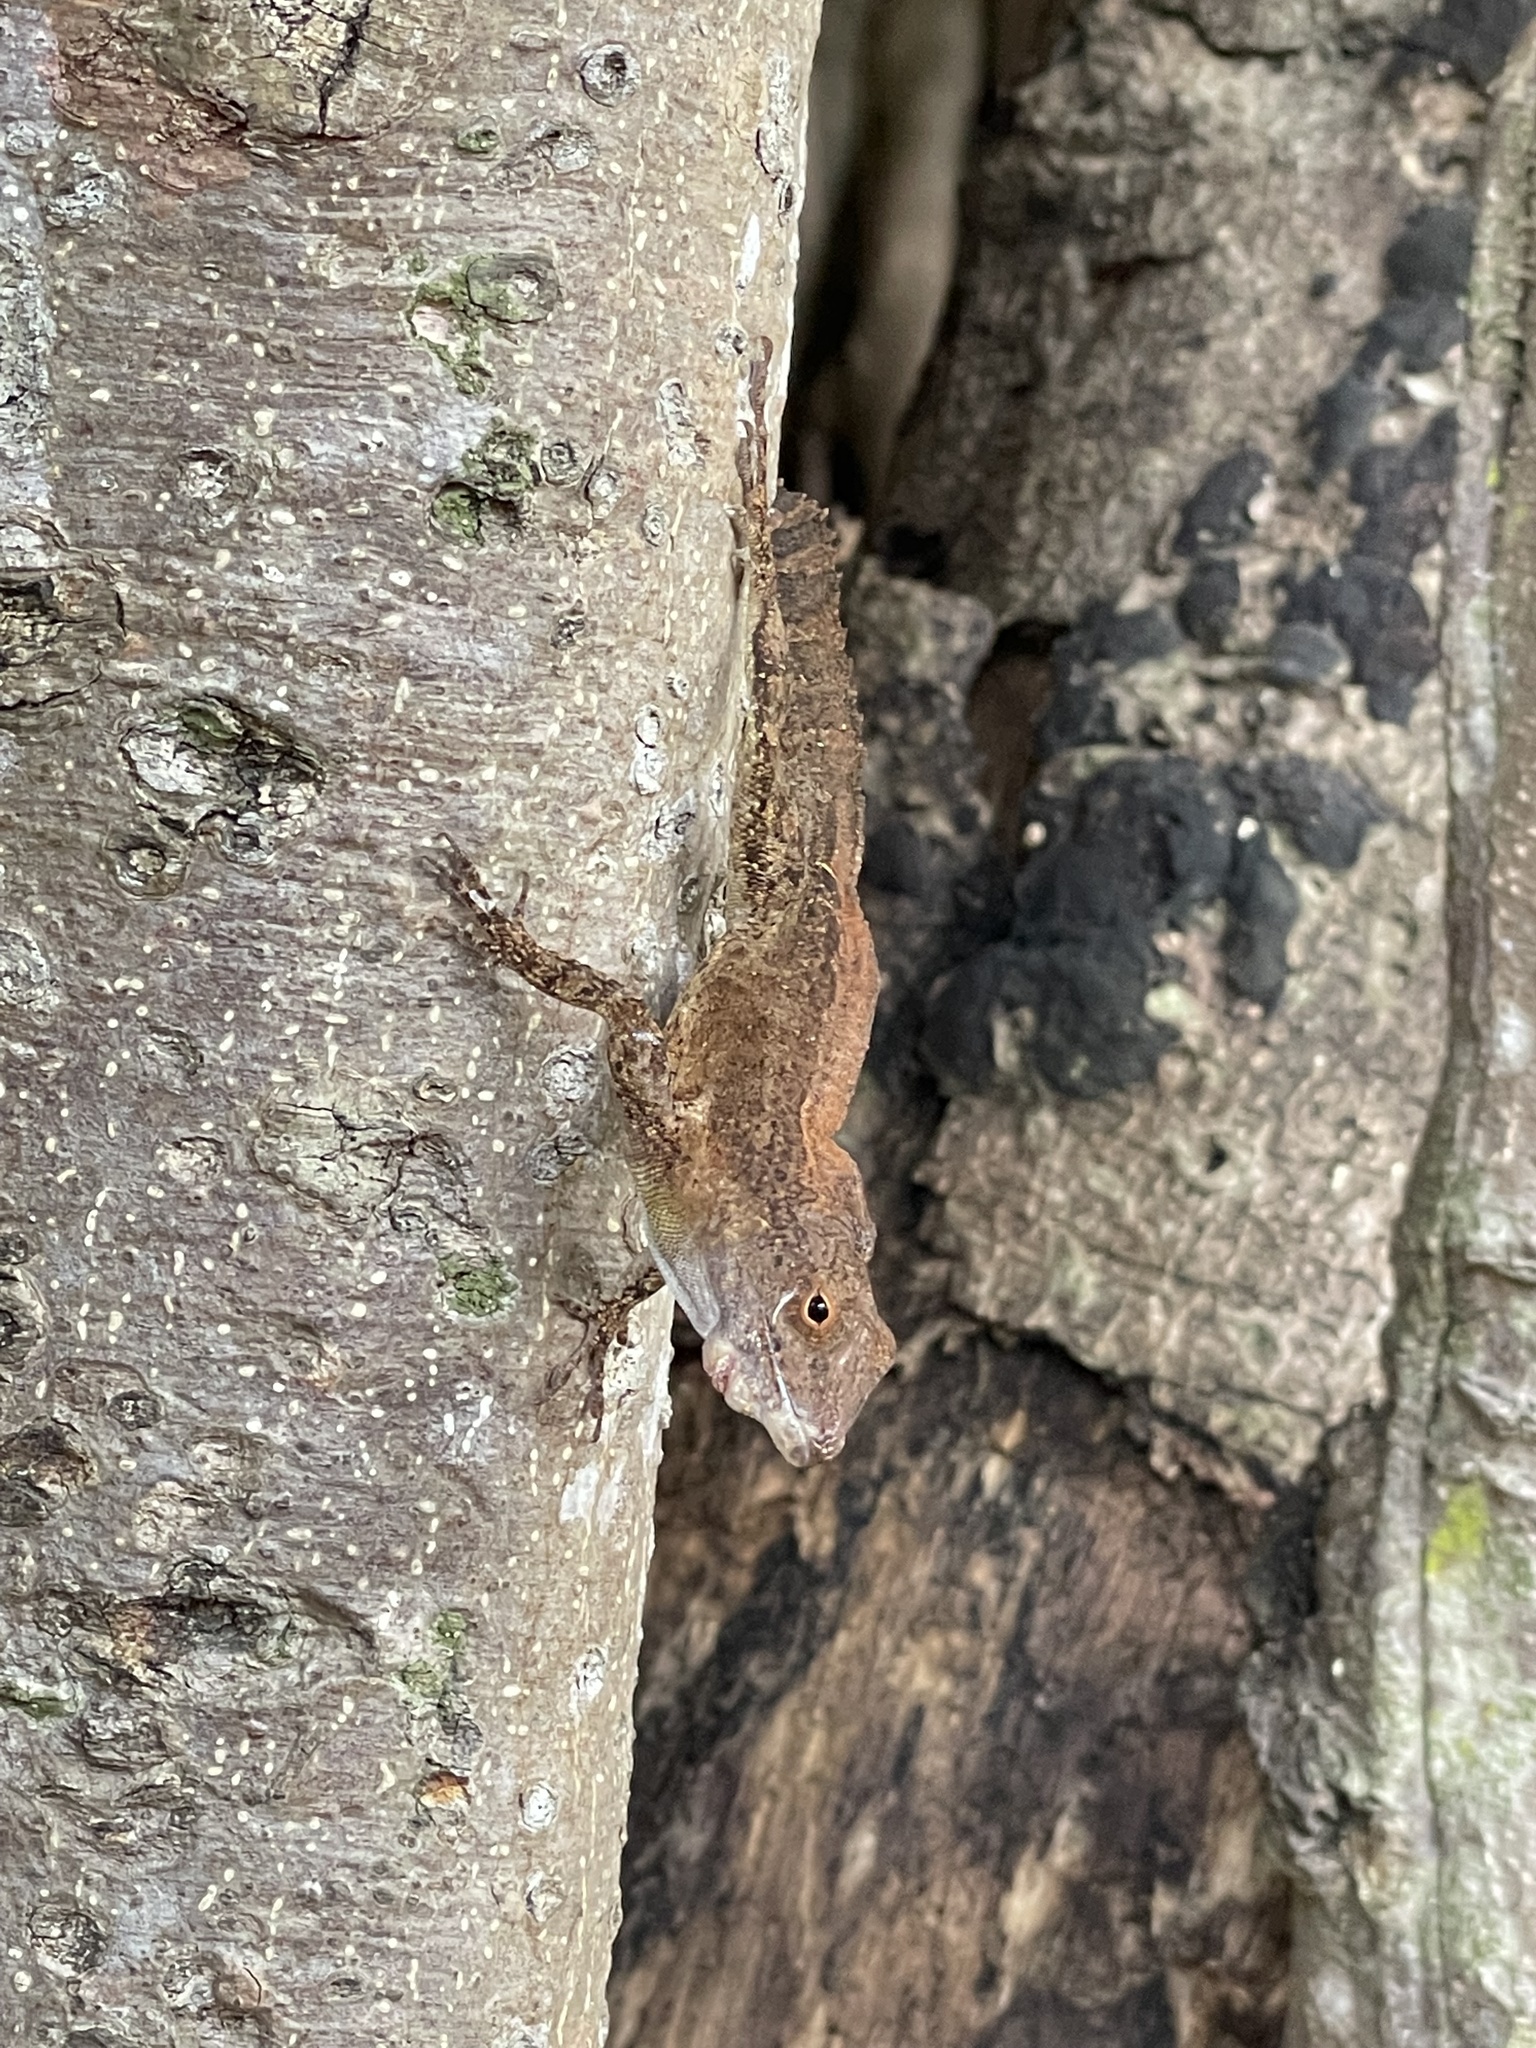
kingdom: Animalia
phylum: Chordata
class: Squamata
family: Dactyloidae
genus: Anolis
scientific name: Anolis cristatellus
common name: Crested anole
